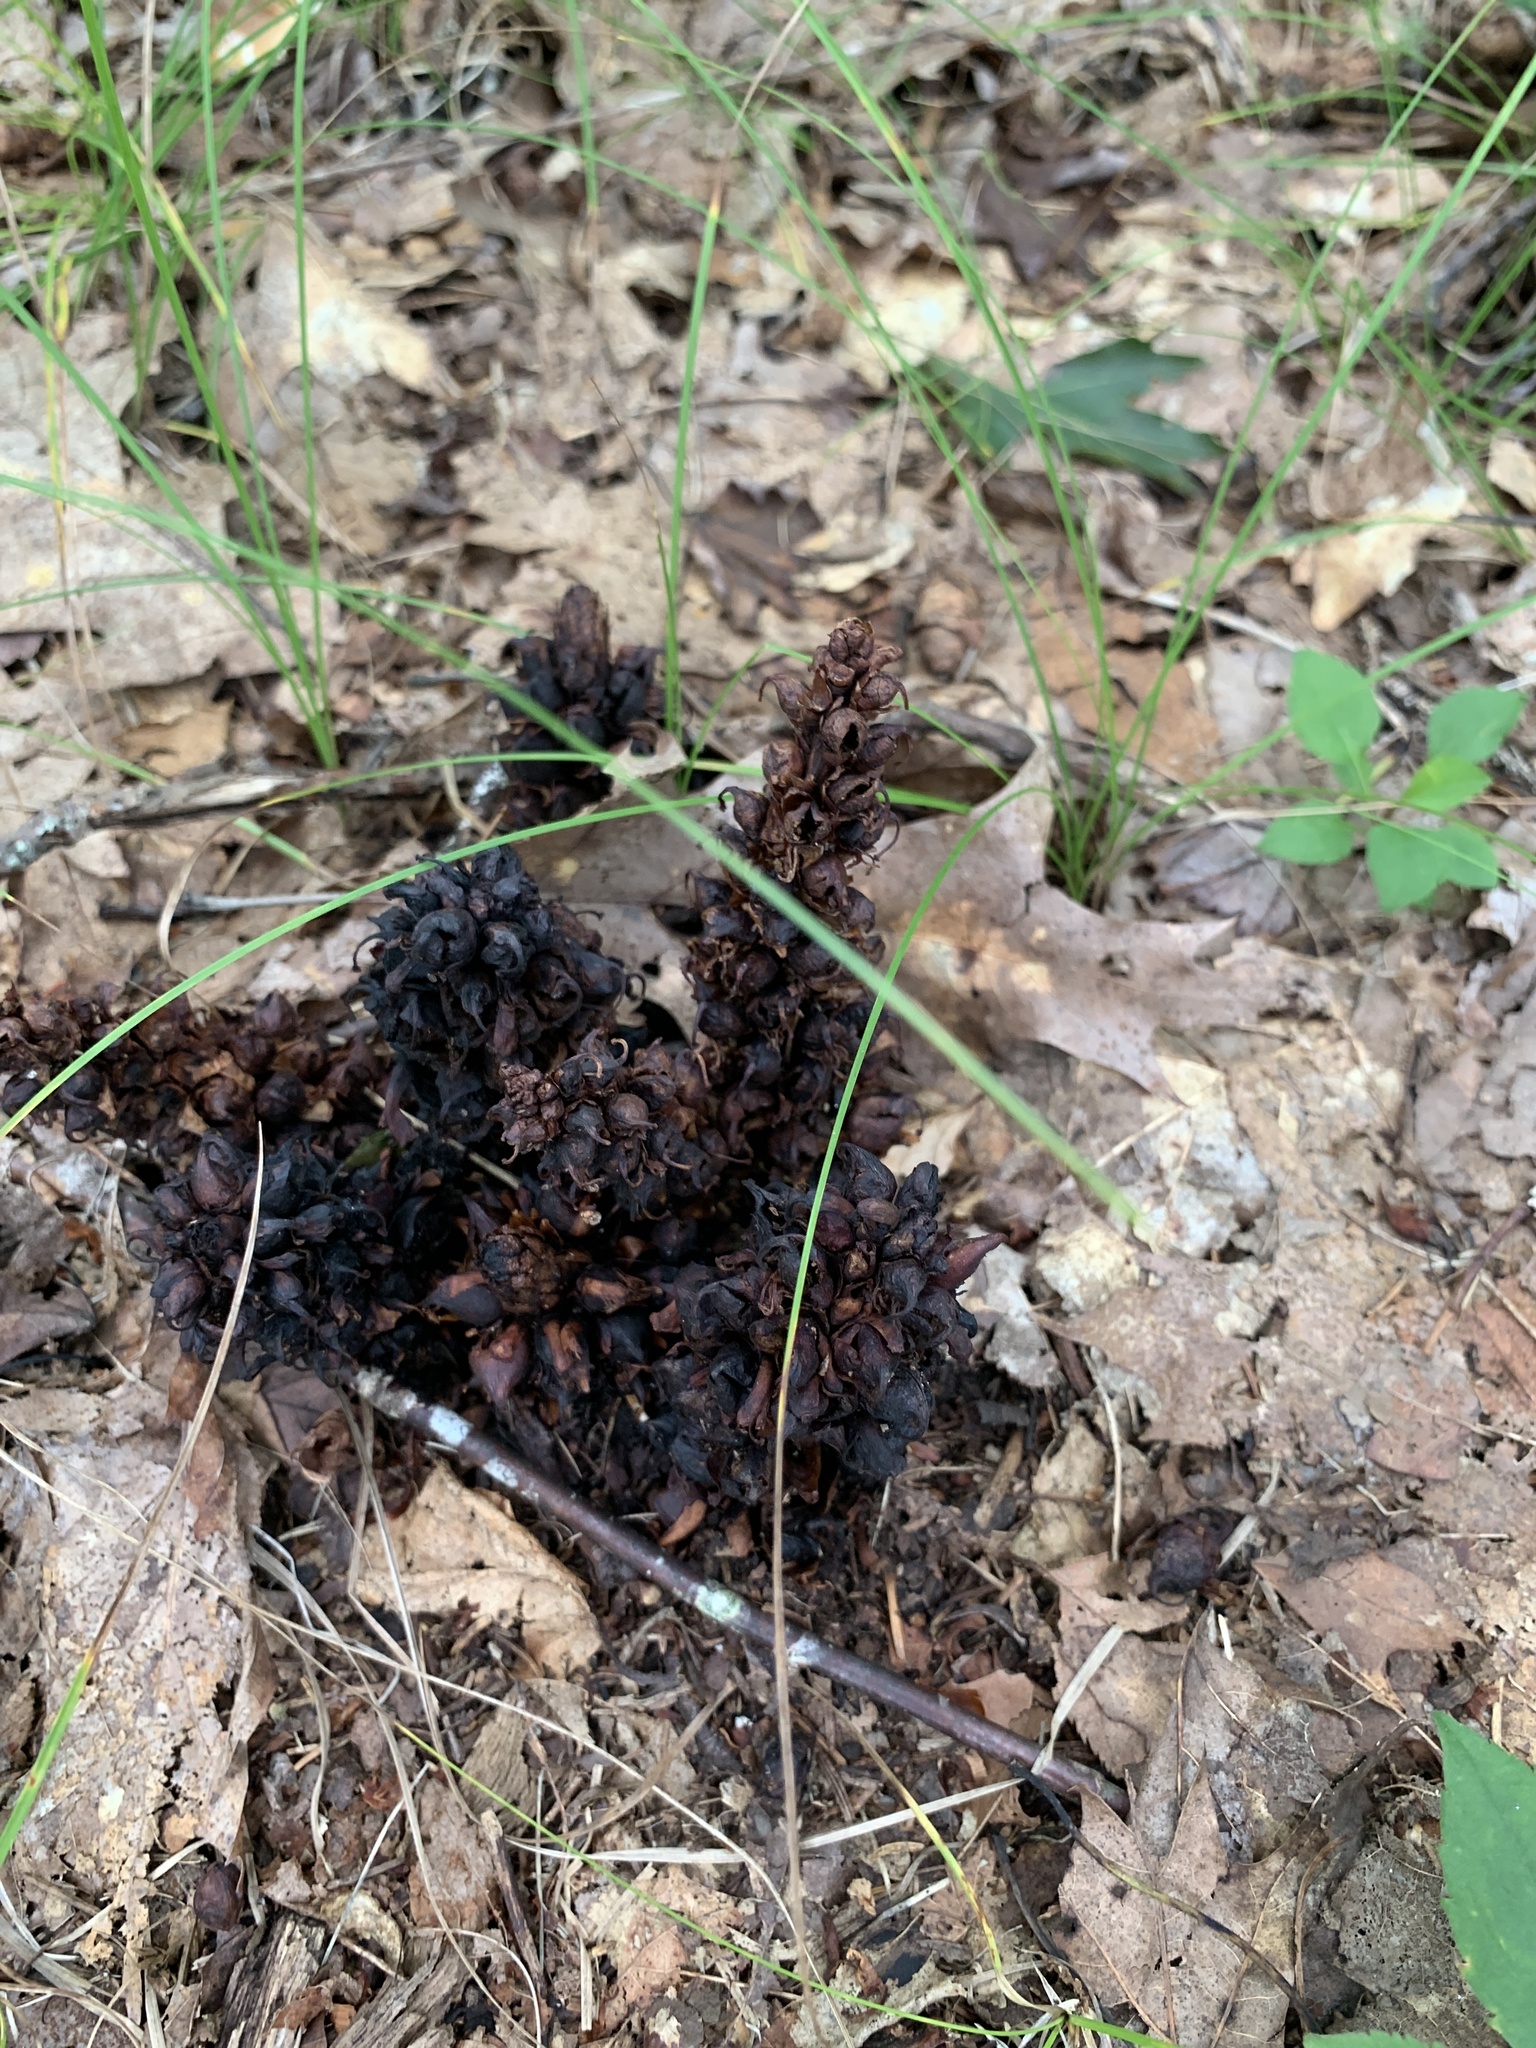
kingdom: Plantae
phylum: Tracheophyta
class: Magnoliopsida
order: Lamiales
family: Orobanchaceae
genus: Conopholis
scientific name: Conopholis americana
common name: American cancer-root
